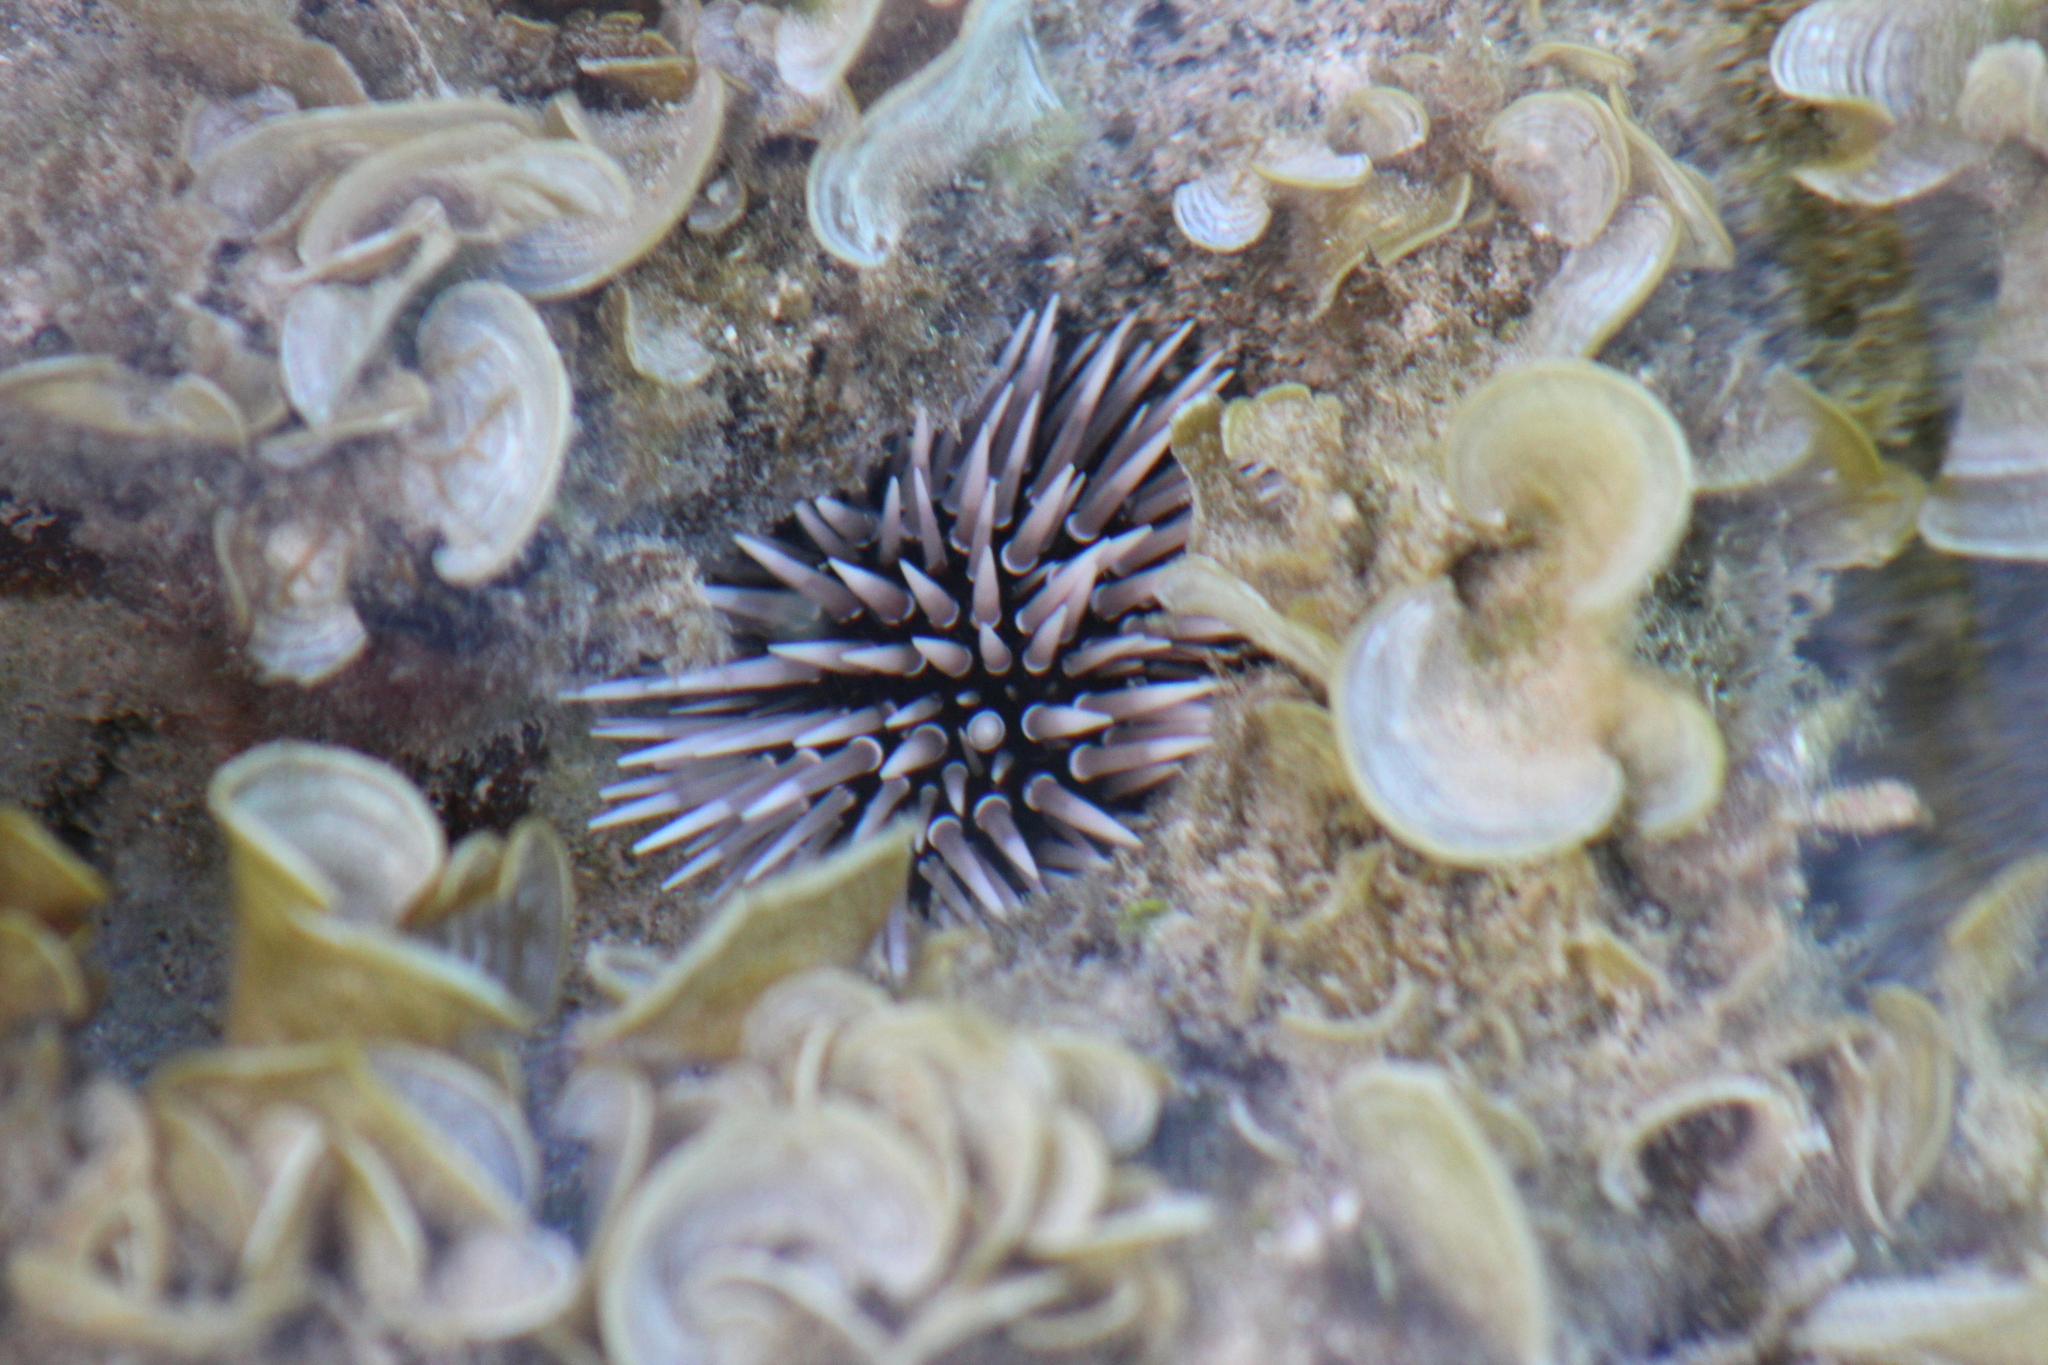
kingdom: Animalia
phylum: Echinodermata
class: Echinoidea
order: Camarodonta
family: Echinometridae
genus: Echinometra
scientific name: Echinometra mathaei
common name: Rock-boring urchin
